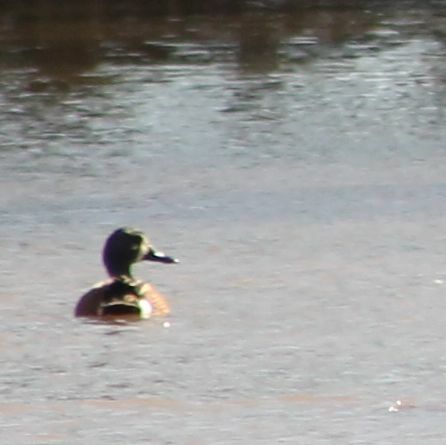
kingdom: Animalia
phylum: Chordata
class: Aves
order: Anseriformes
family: Anatidae
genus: Spatula
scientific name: Spatula discors
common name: Blue-winged teal
